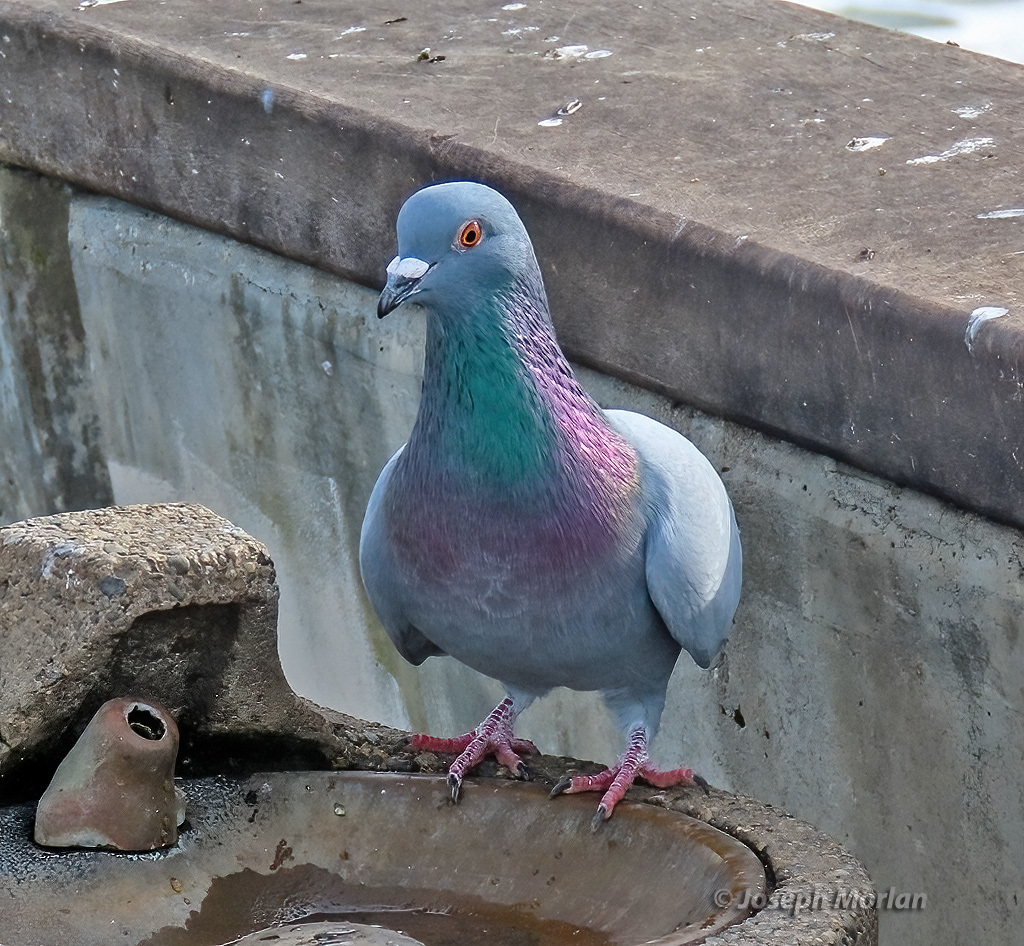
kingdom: Animalia
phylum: Chordata
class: Aves
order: Columbiformes
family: Columbidae
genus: Columba
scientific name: Columba livia
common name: Rock pigeon
